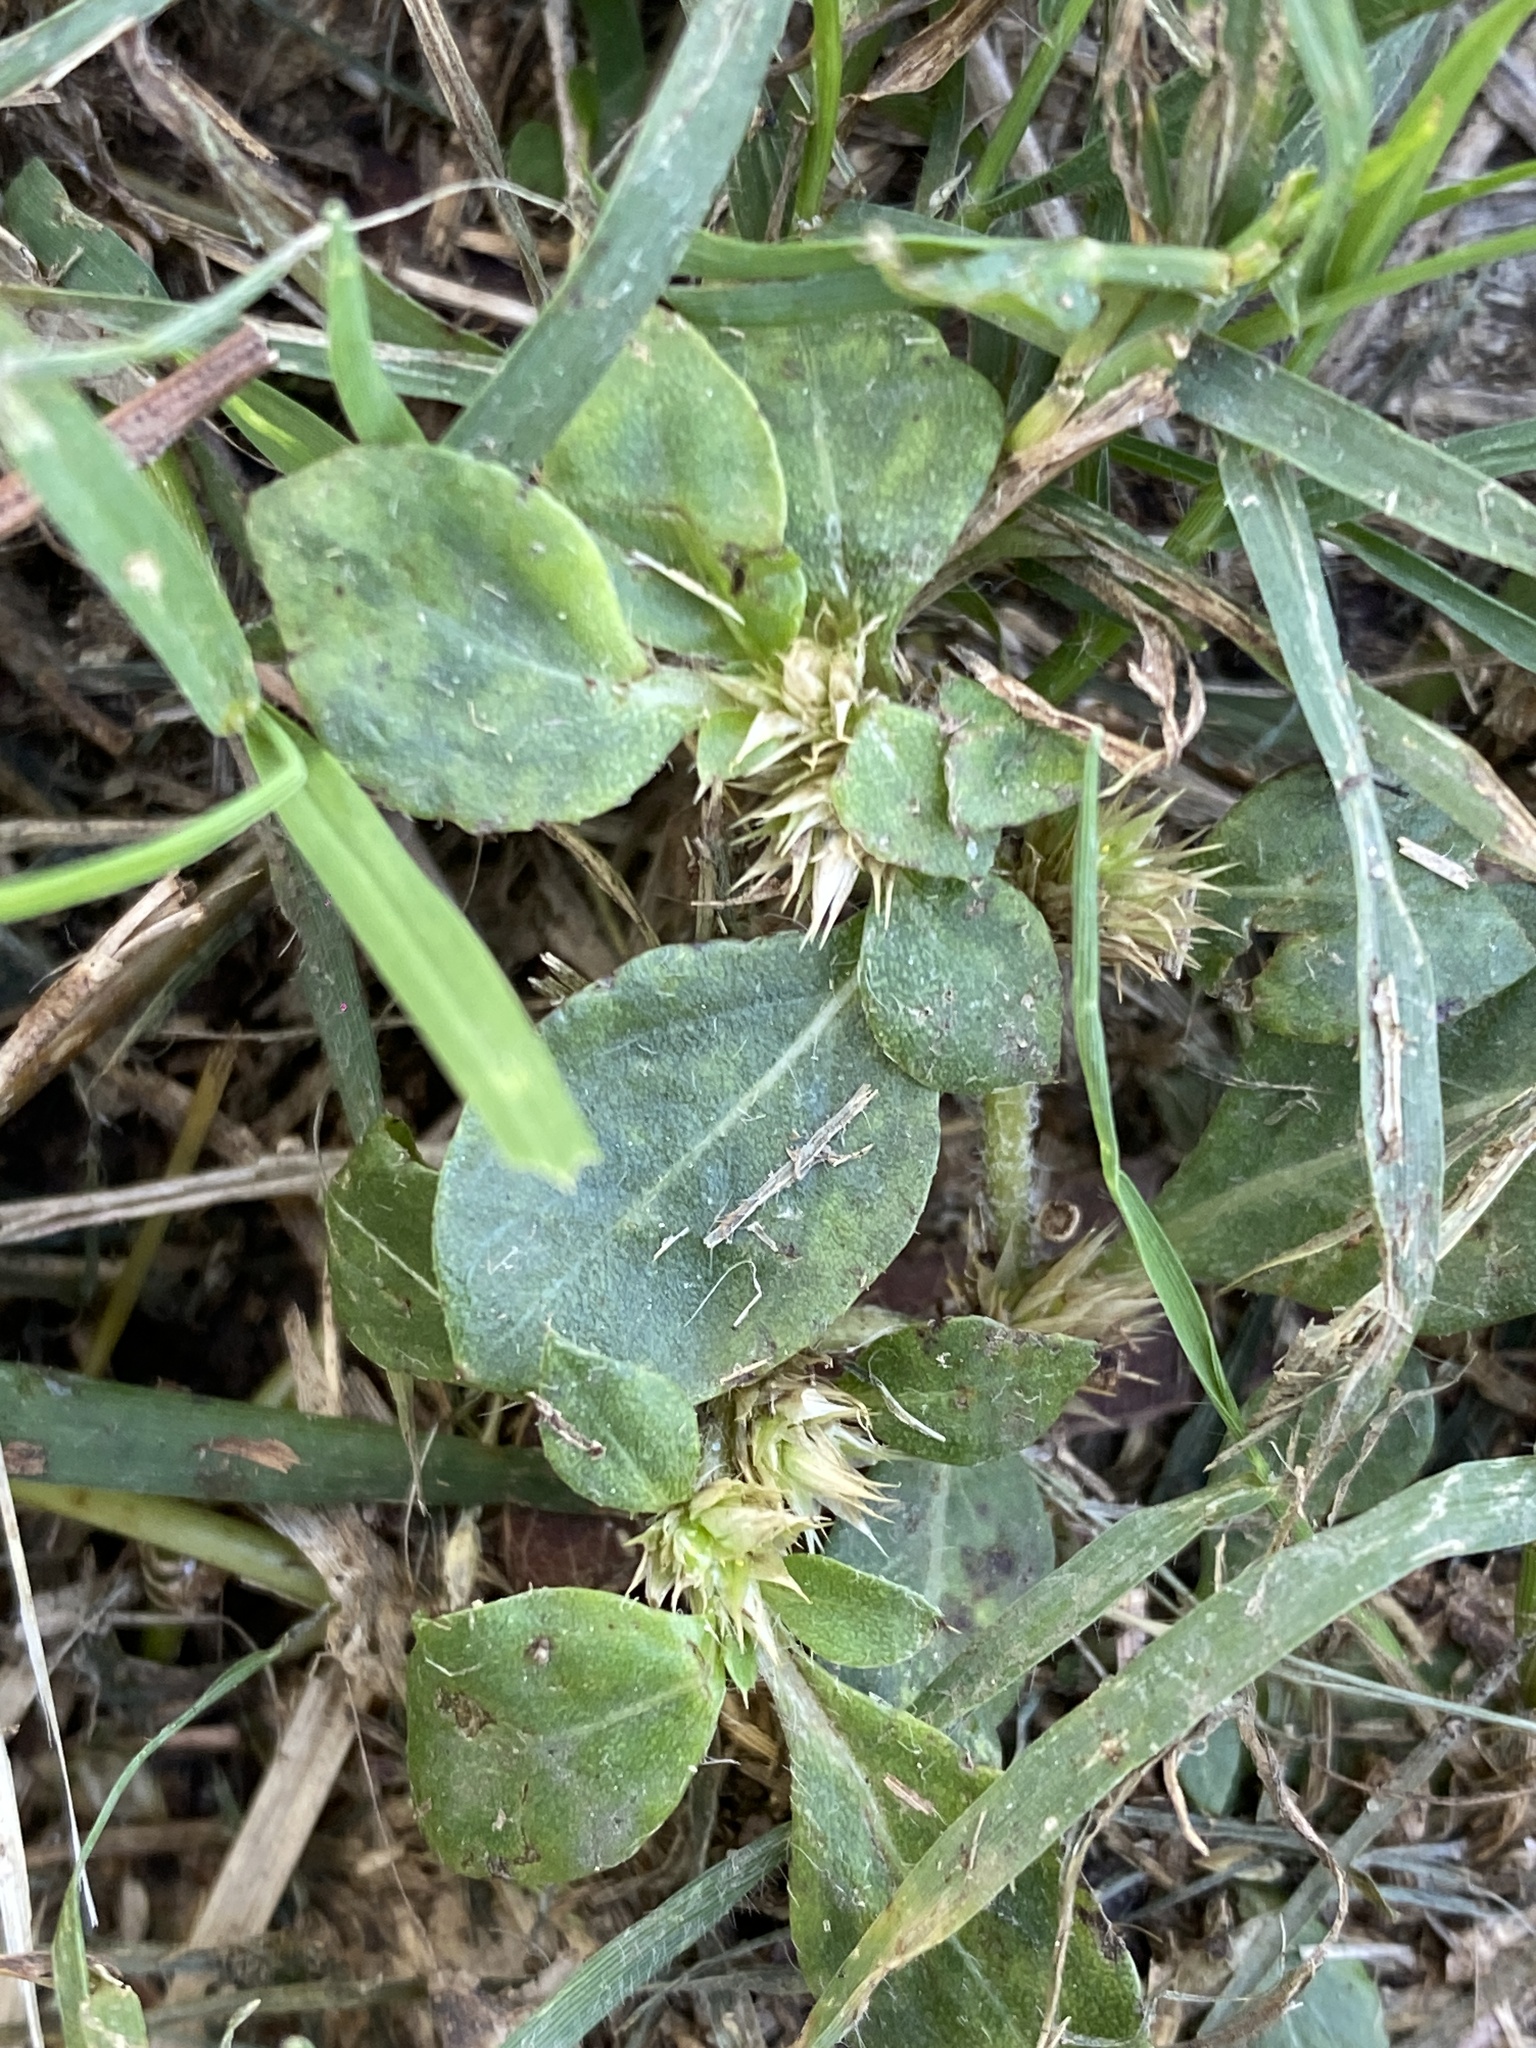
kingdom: Plantae
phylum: Tracheophyta
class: Magnoliopsida
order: Caryophyllales
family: Amaranthaceae
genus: Alternanthera
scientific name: Alternanthera pungens
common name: Khakiweed
